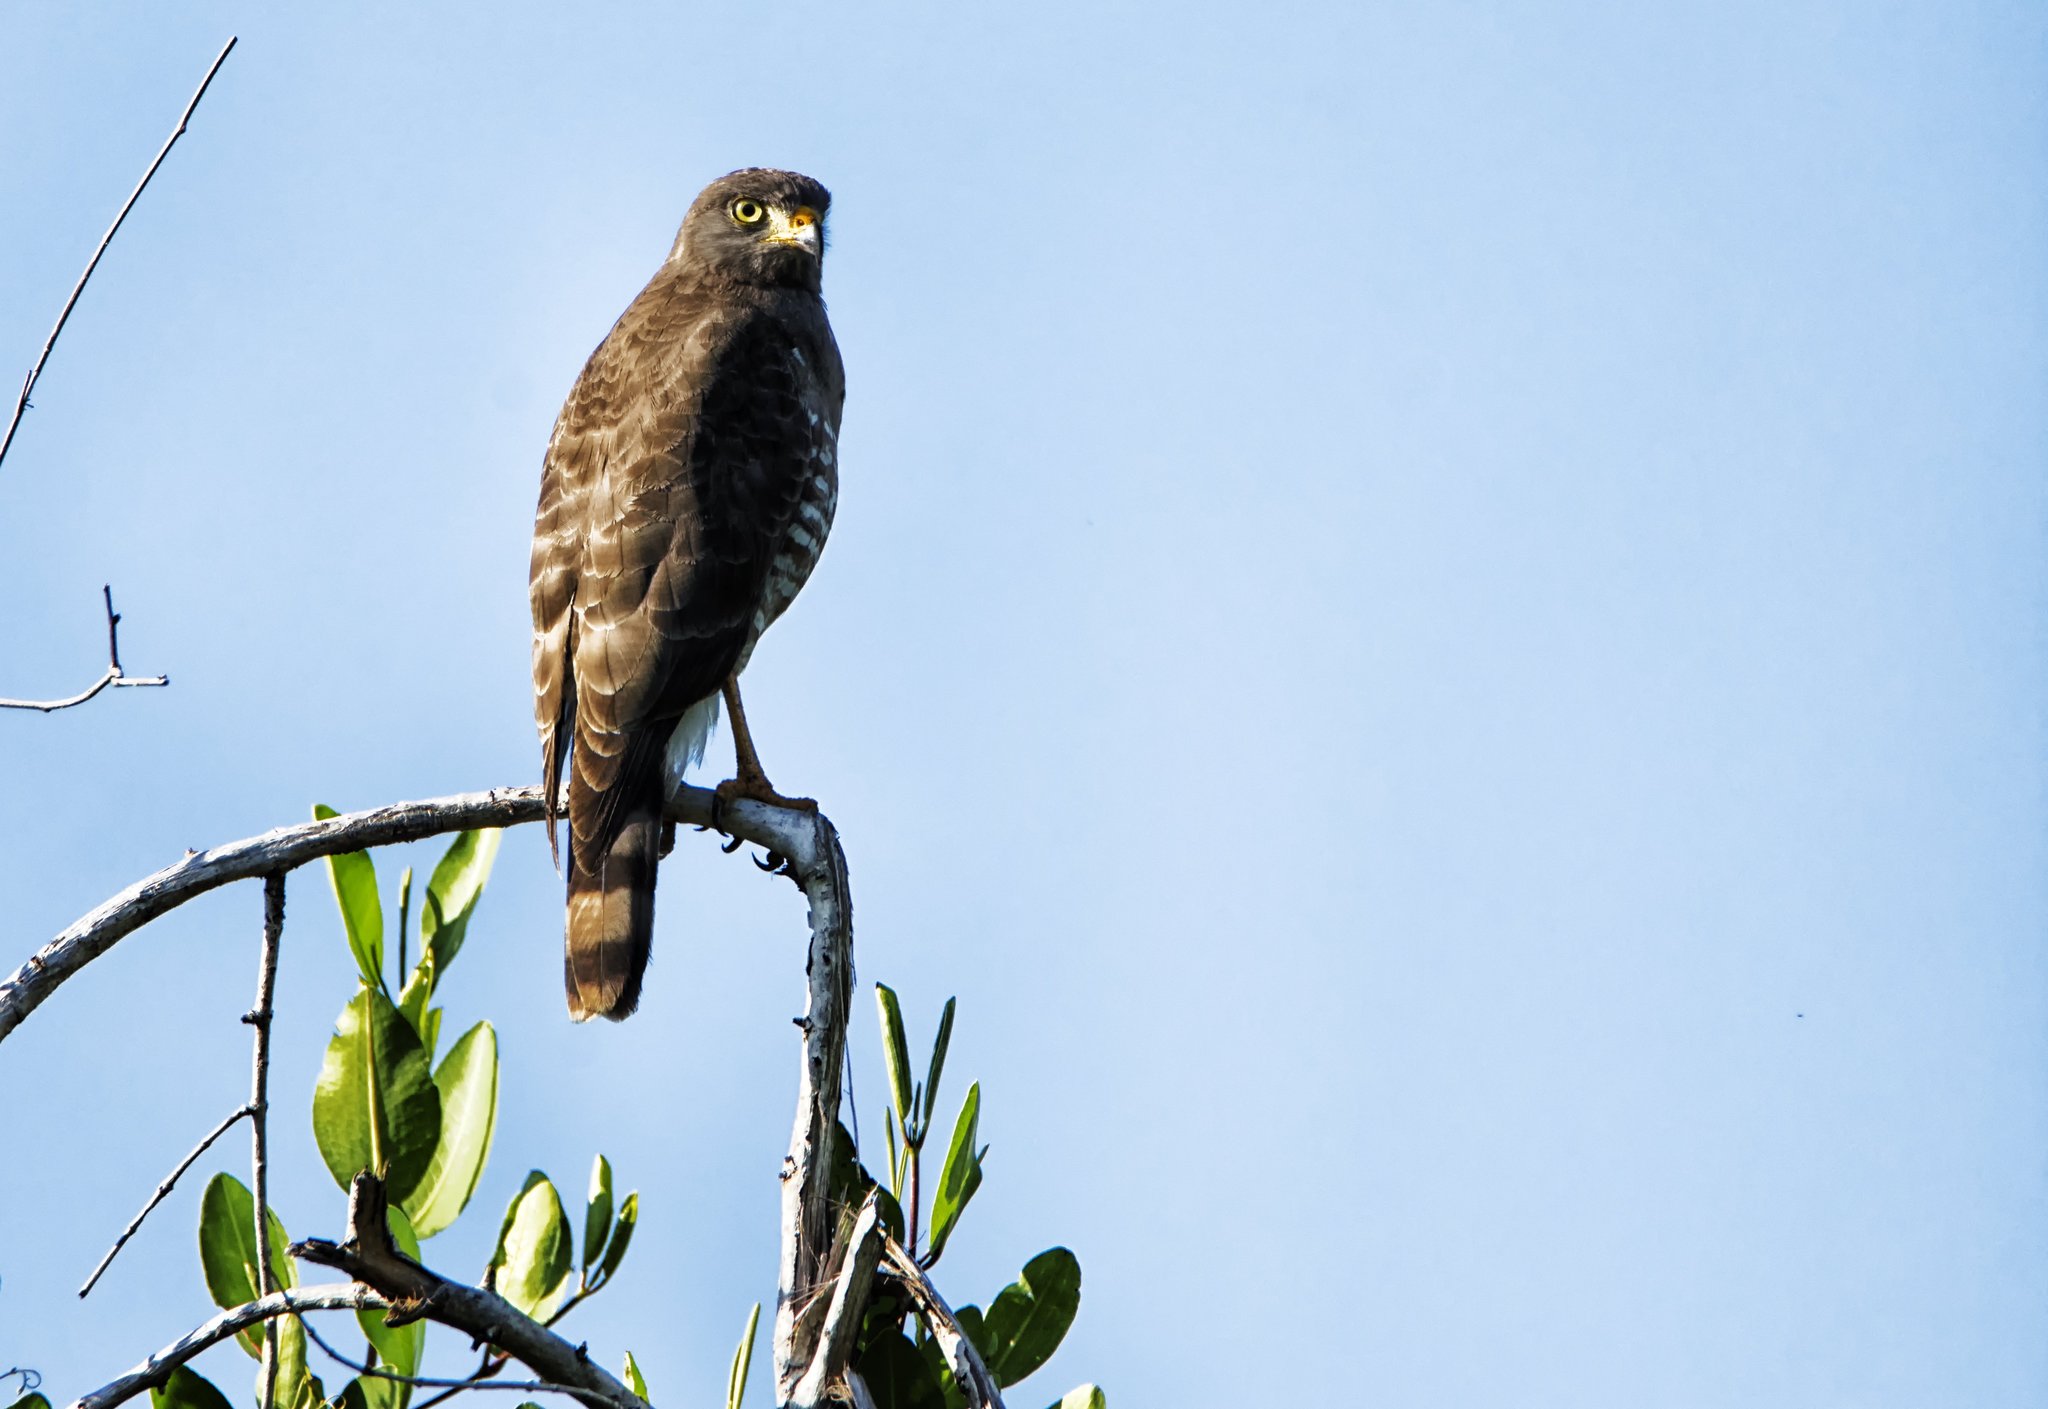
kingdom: Animalia
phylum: Chordata
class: Aves
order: Accipitriformes
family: Accipitridae
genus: Rupornis
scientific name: Rupornis magnirostris
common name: Roadside hawk
